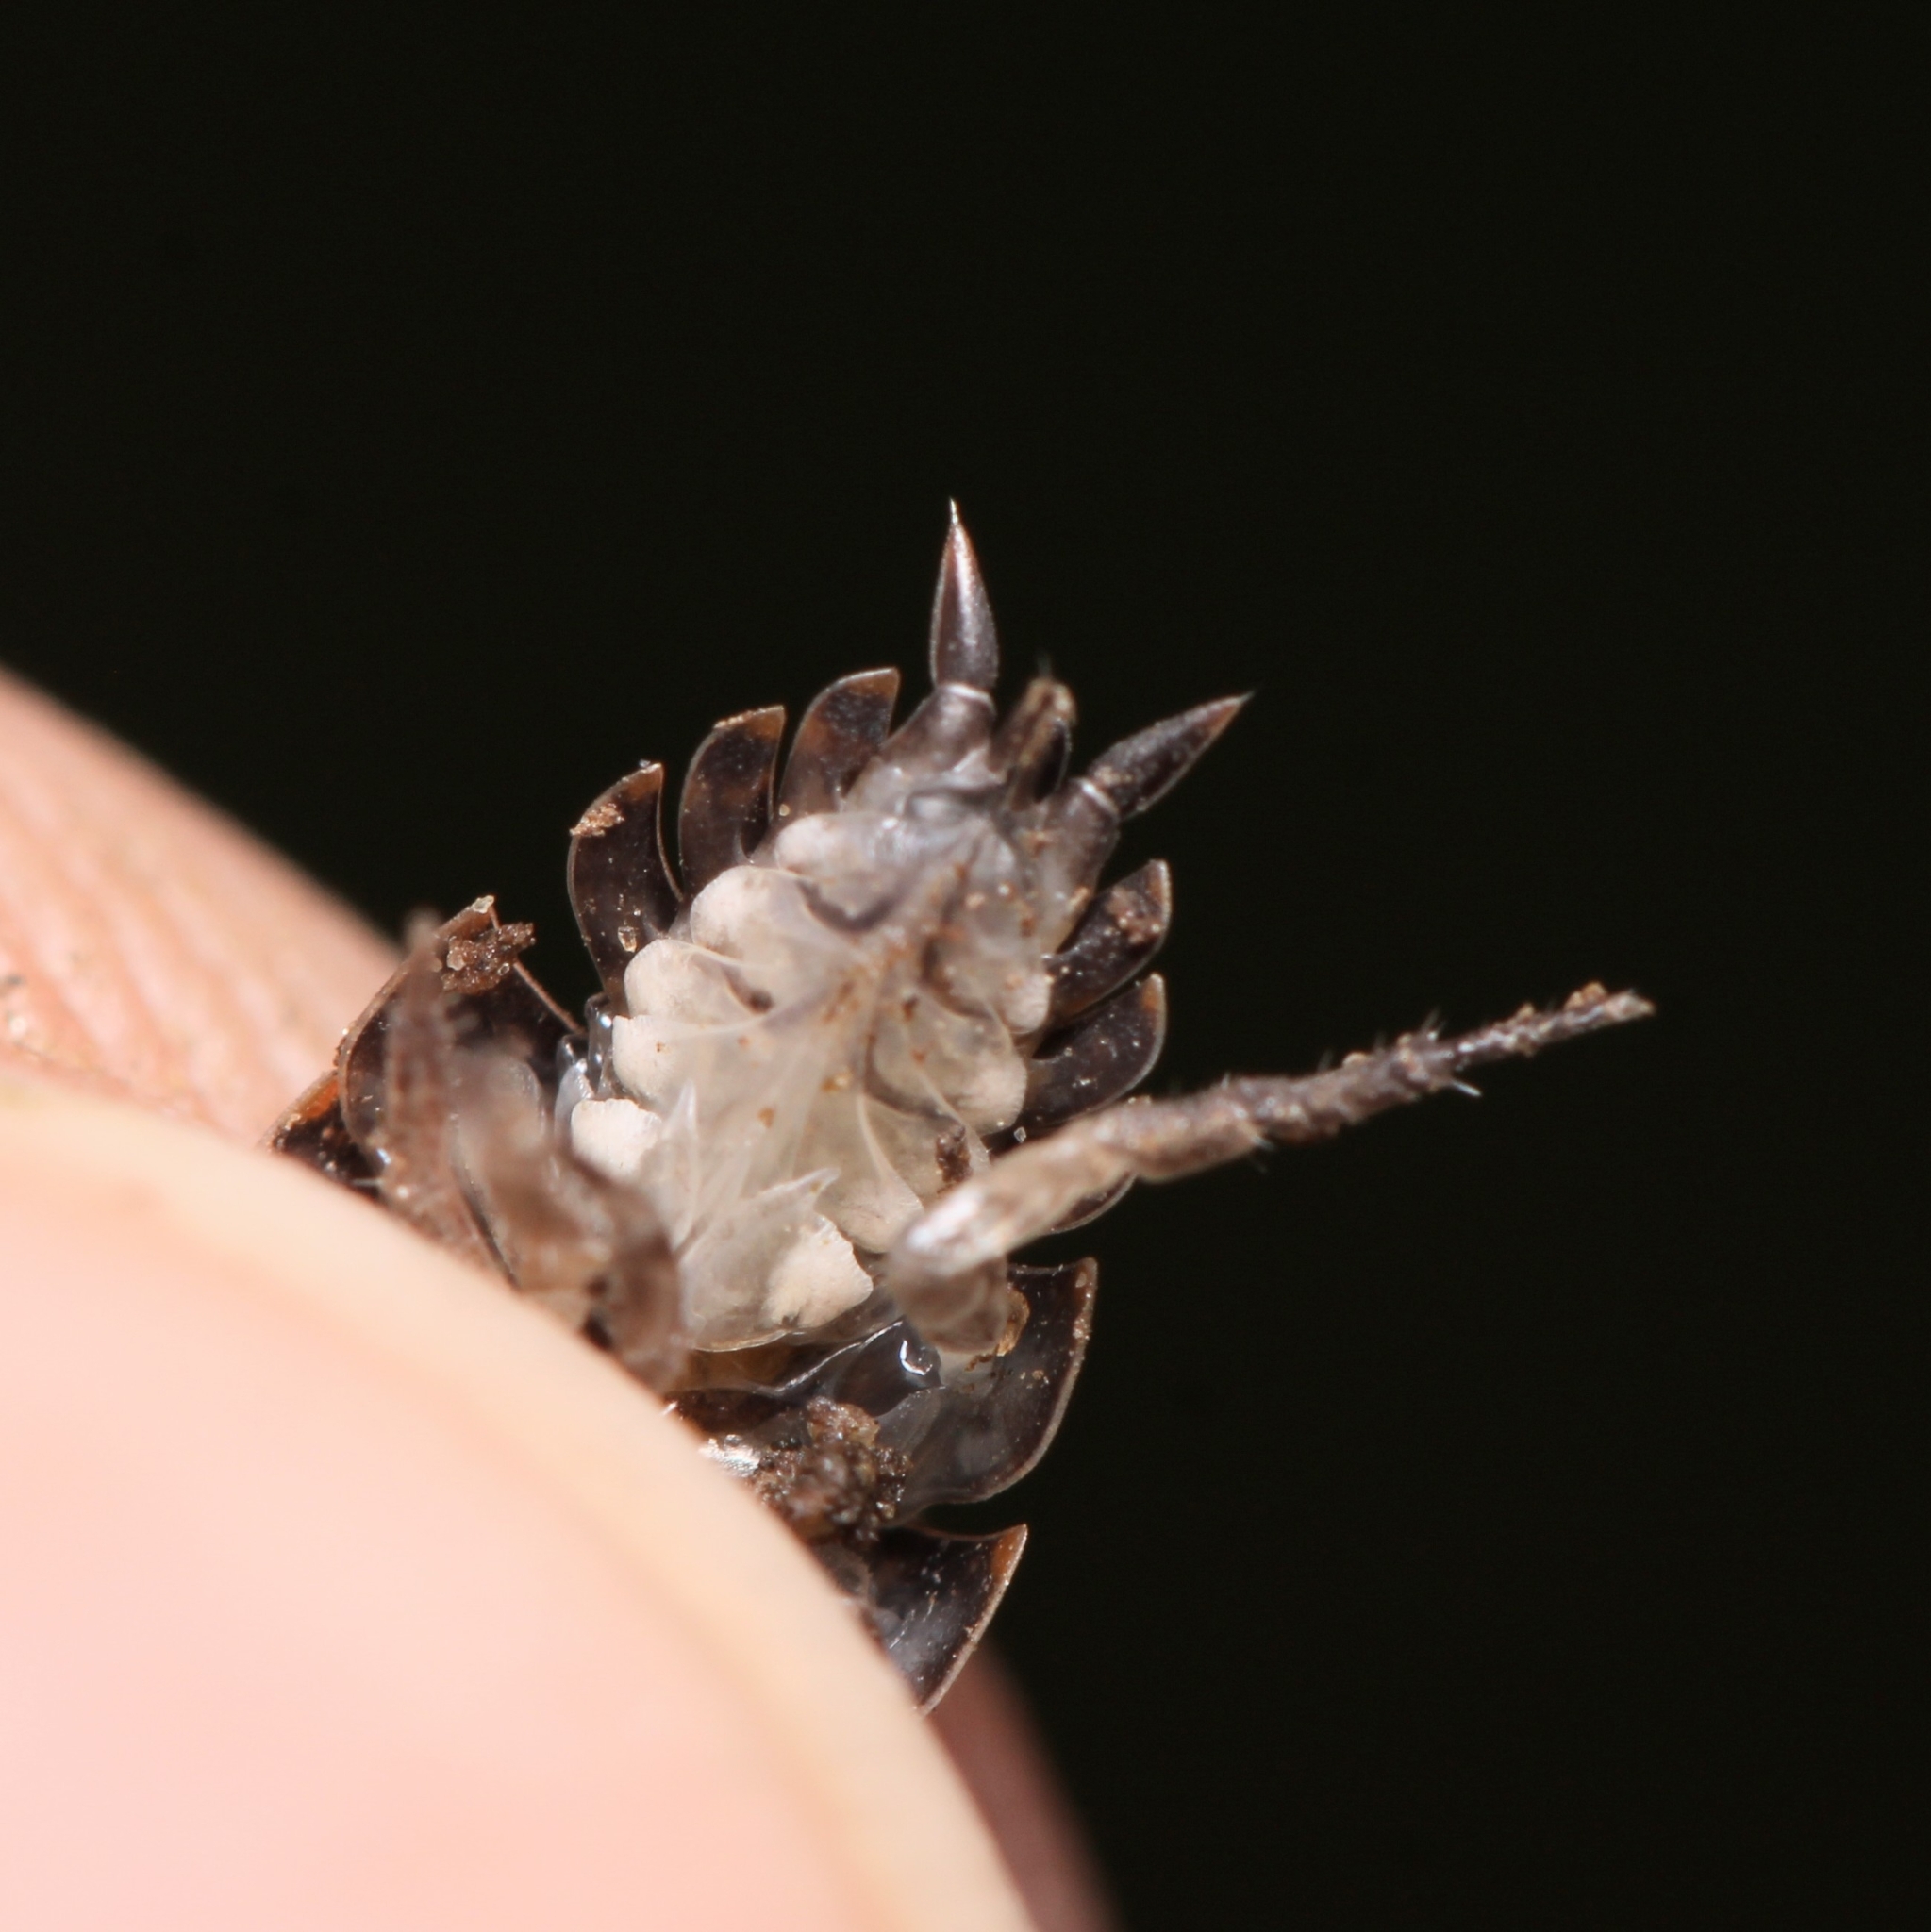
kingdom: Animalia
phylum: Arthropoda
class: Malacostraca
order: Isopoda
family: Trachelipodidae
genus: Trachelipus
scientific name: Trachelipus rathkii
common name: Isopod
